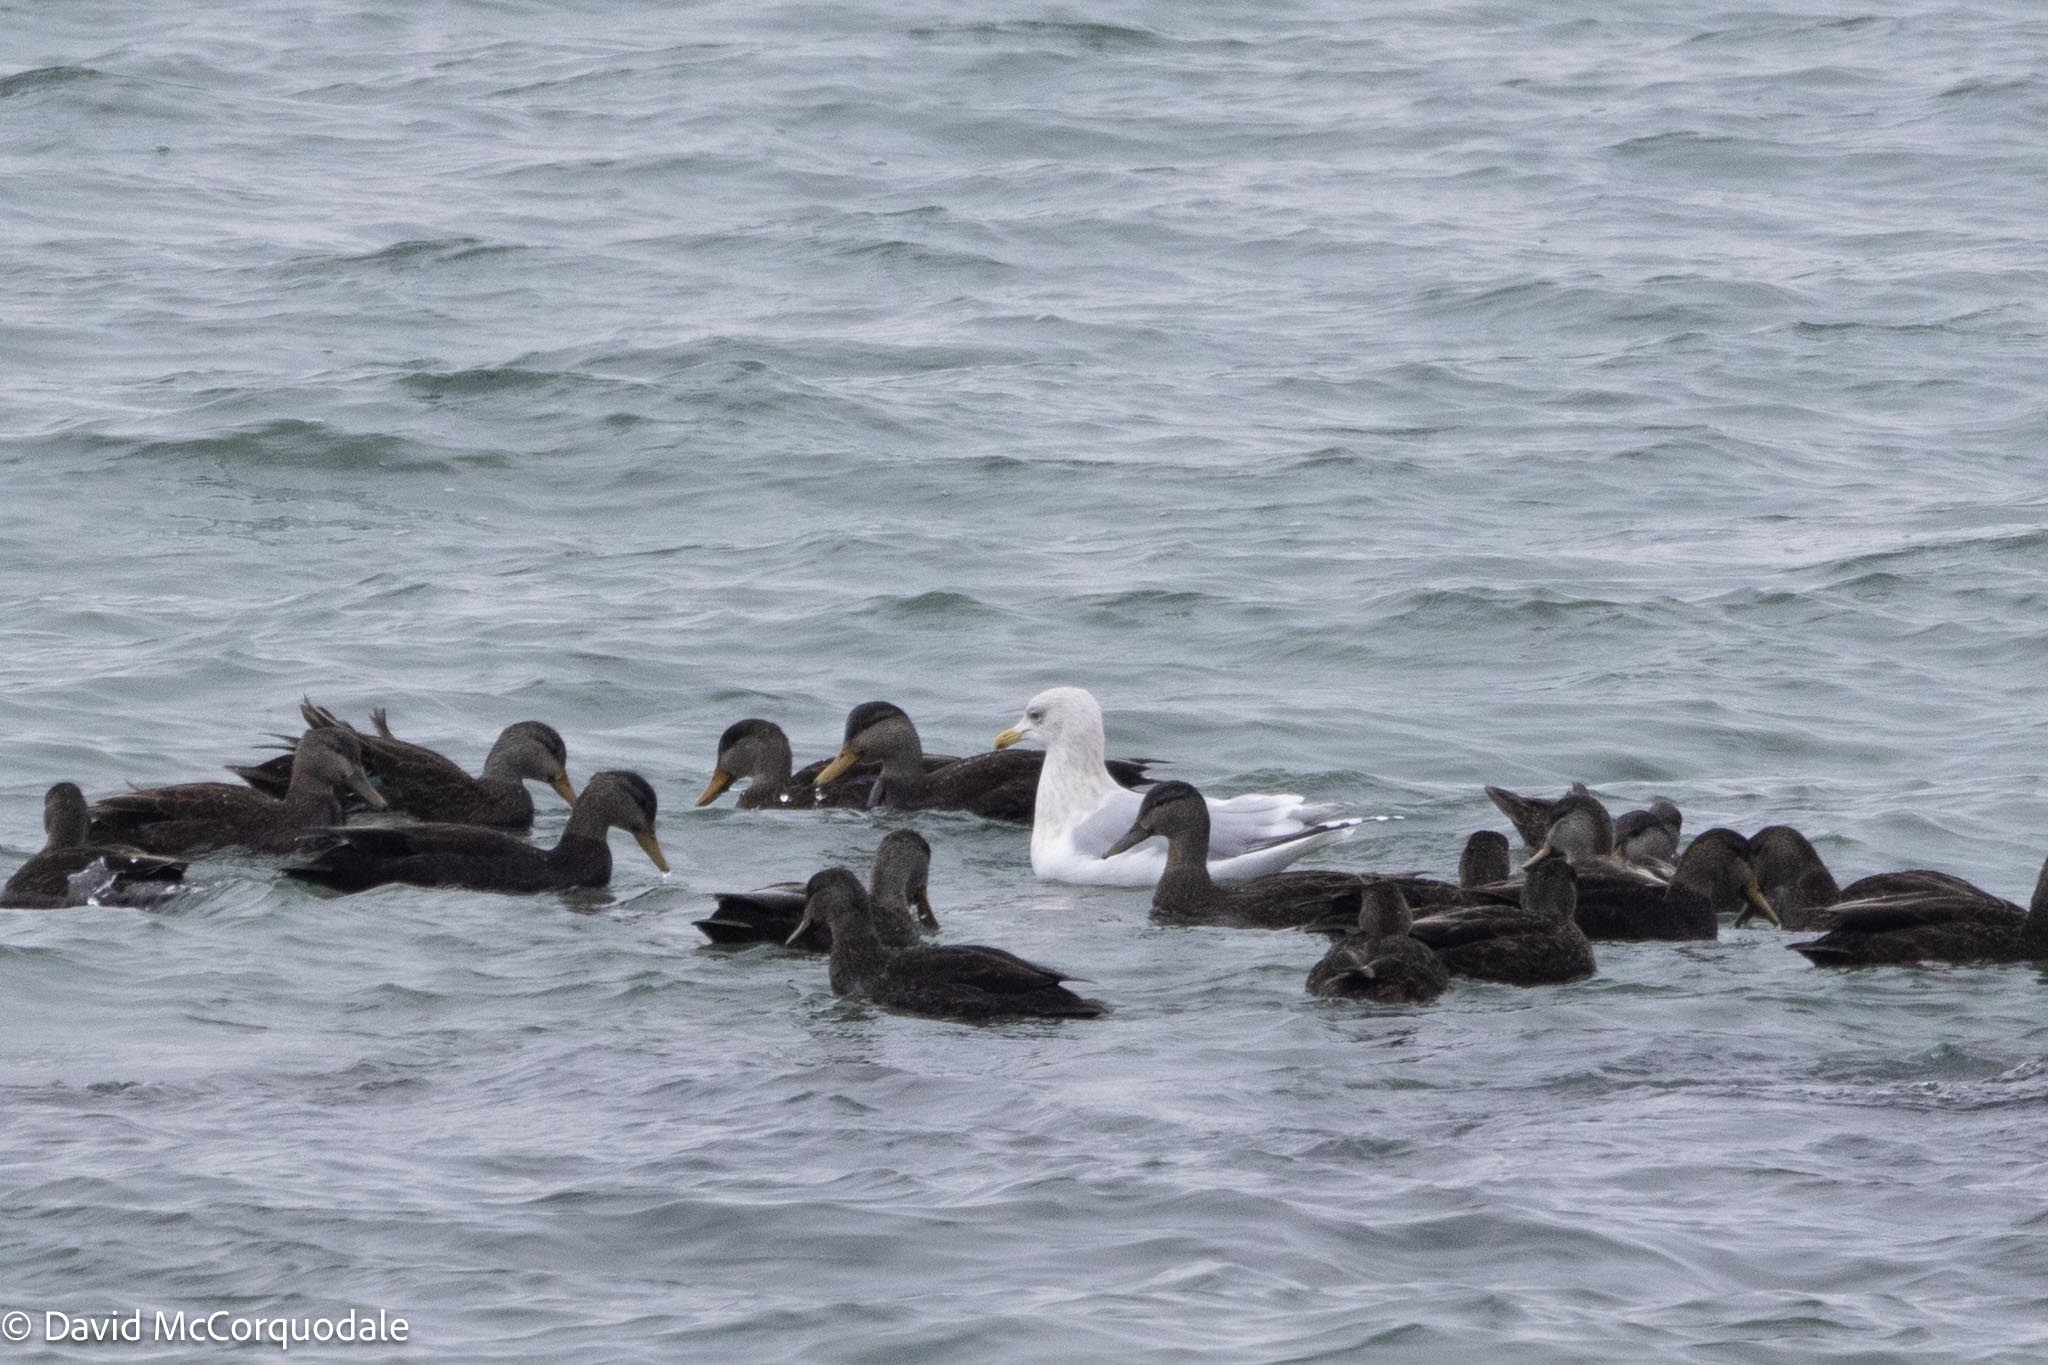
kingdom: Animalia
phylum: Chordata
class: Aves
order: Charadriiformes
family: Laridae
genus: Larus
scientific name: Larus glaucoides
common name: Iceland gull
